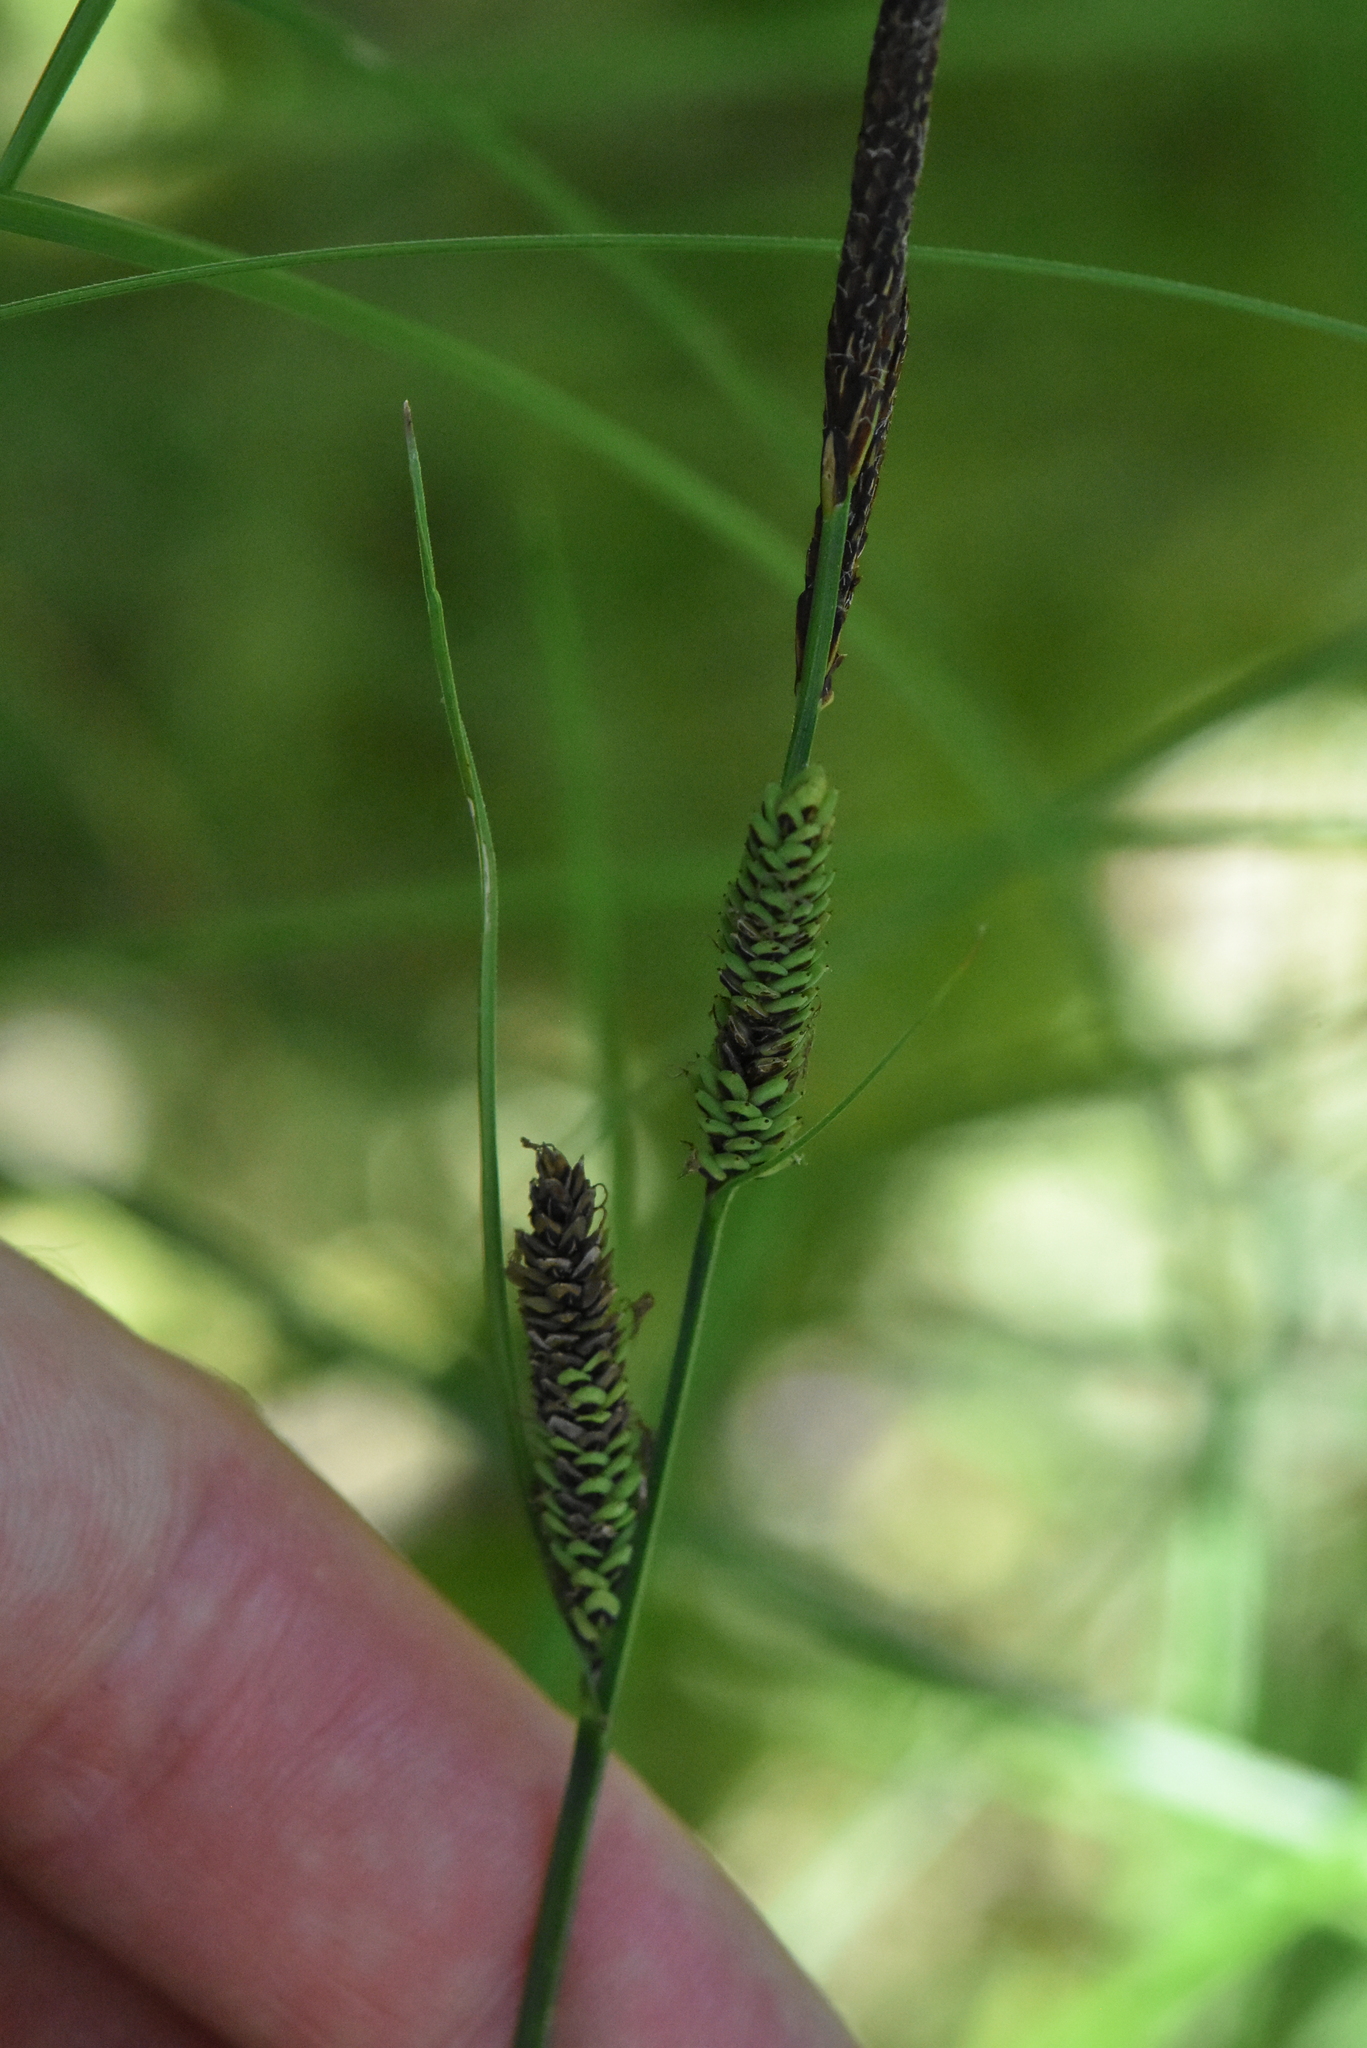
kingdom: Plantae
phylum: Tracheophyta
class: Liliopsida
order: Poales
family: Cyperaceae
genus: Carex
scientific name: Carex nigra
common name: Common sedge
